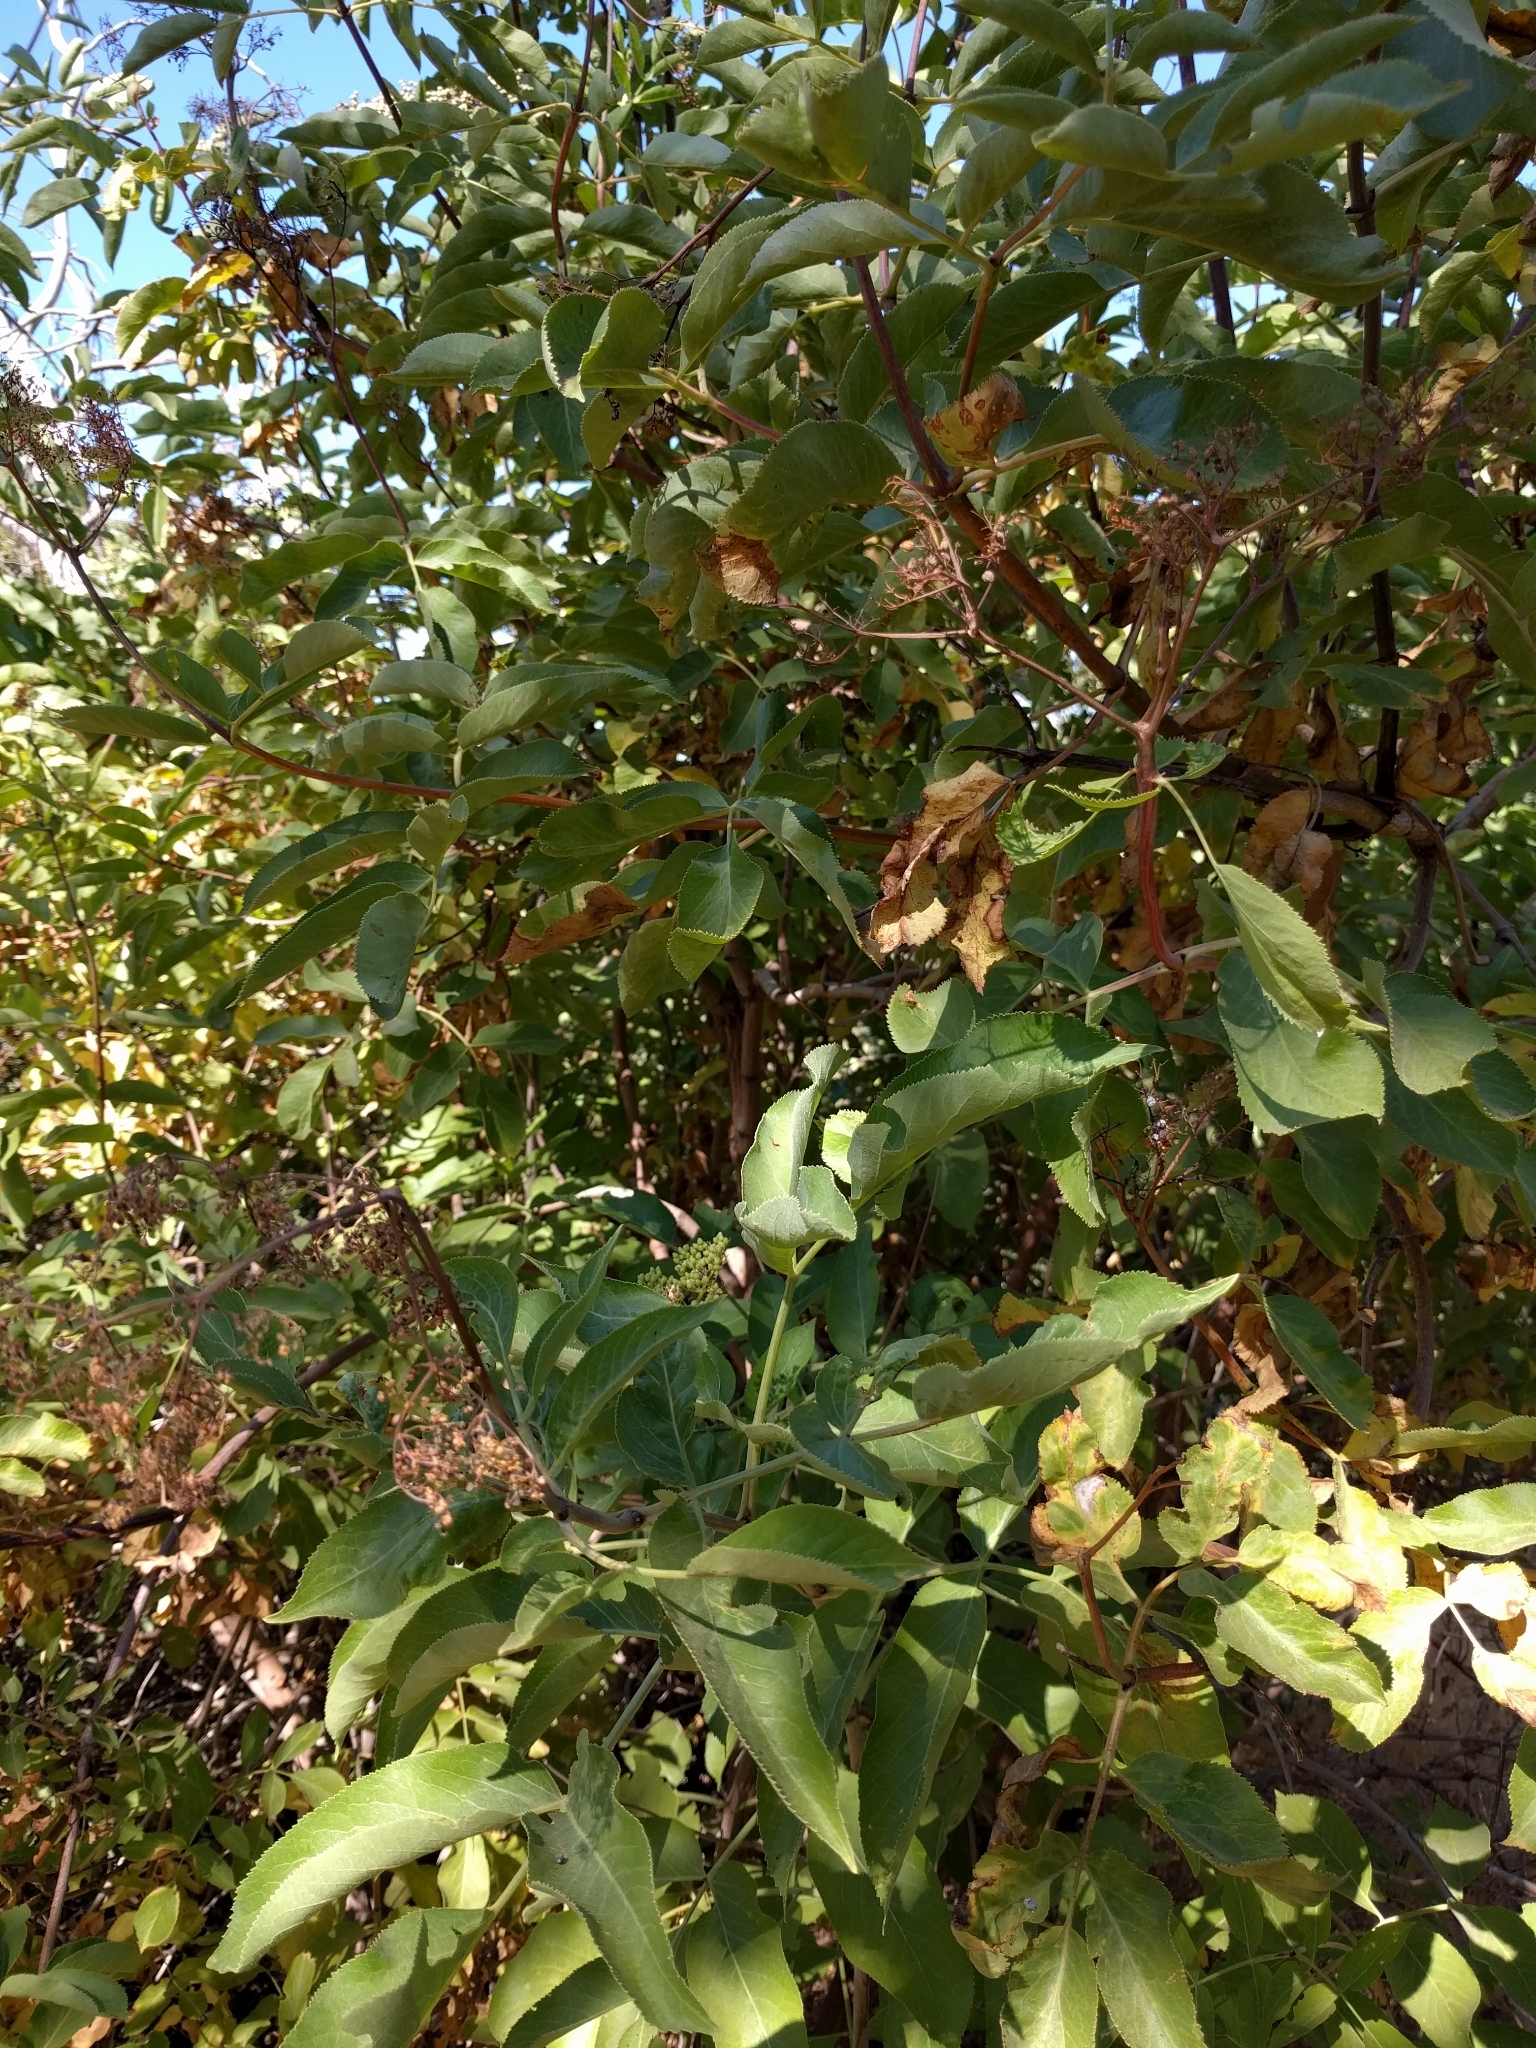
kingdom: Plantae
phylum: Tracheophyta
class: Magnoliopsida
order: Dipsacales
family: Viburnaceae
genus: Sambucus
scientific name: Sambucus cerulea
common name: Blue elder
